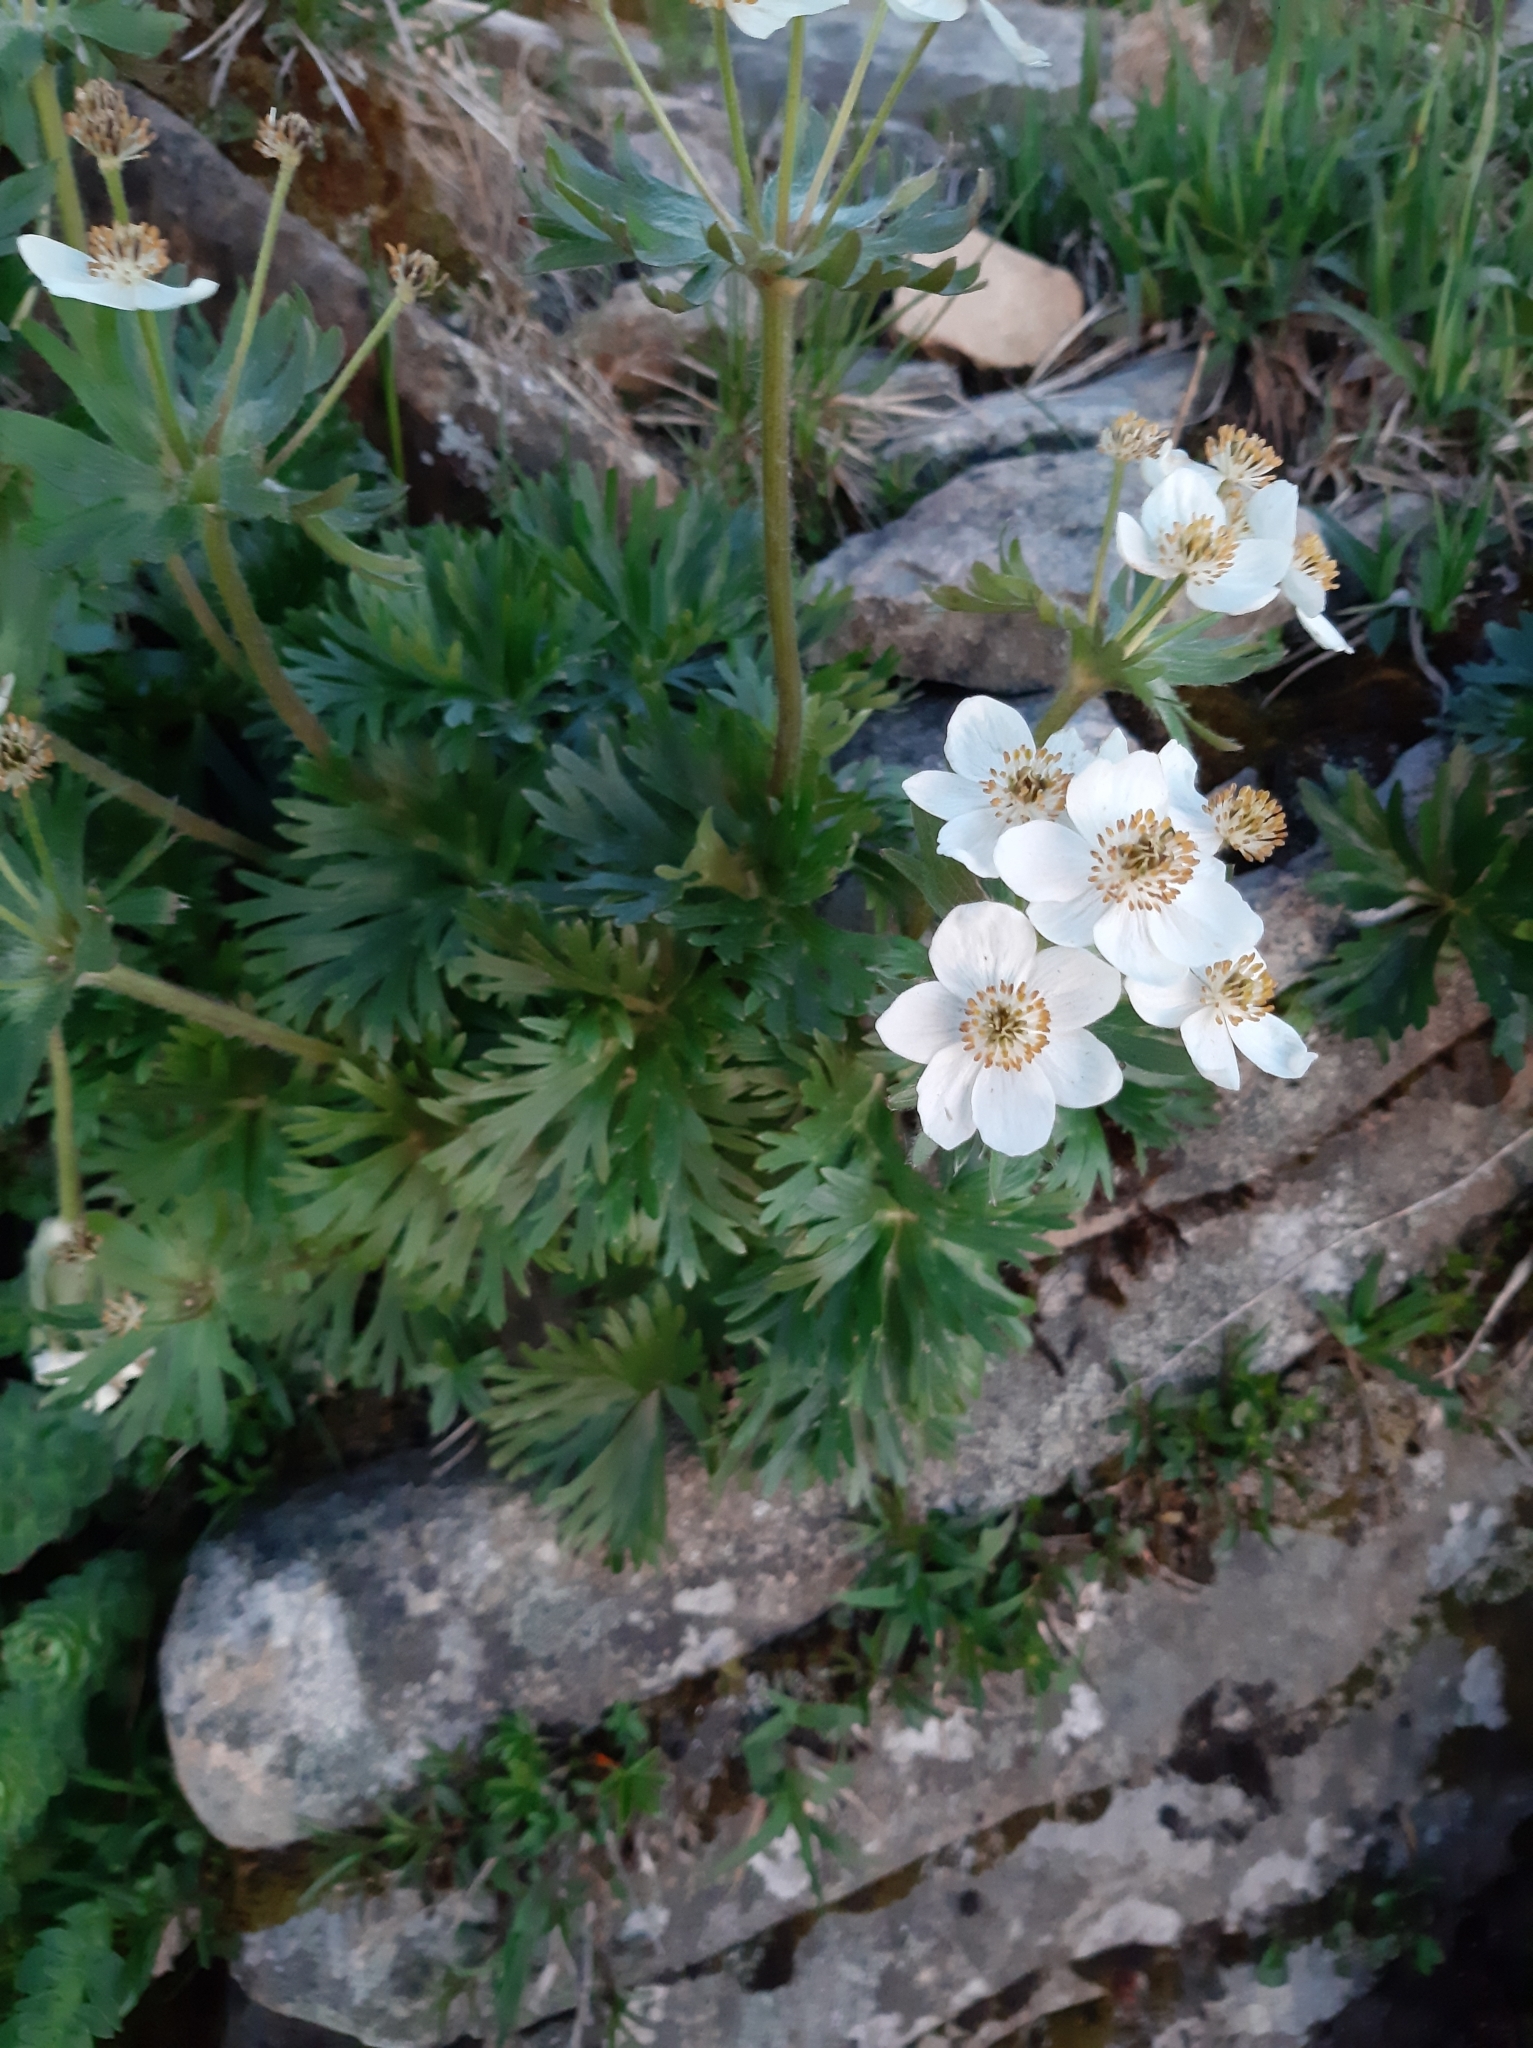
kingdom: Plantae
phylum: Tracheophyta
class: Magnoliopsida
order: Ranunculales
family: Ranunculaceae
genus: Anemonastrum
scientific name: Anemonastrum narcissiflorum
